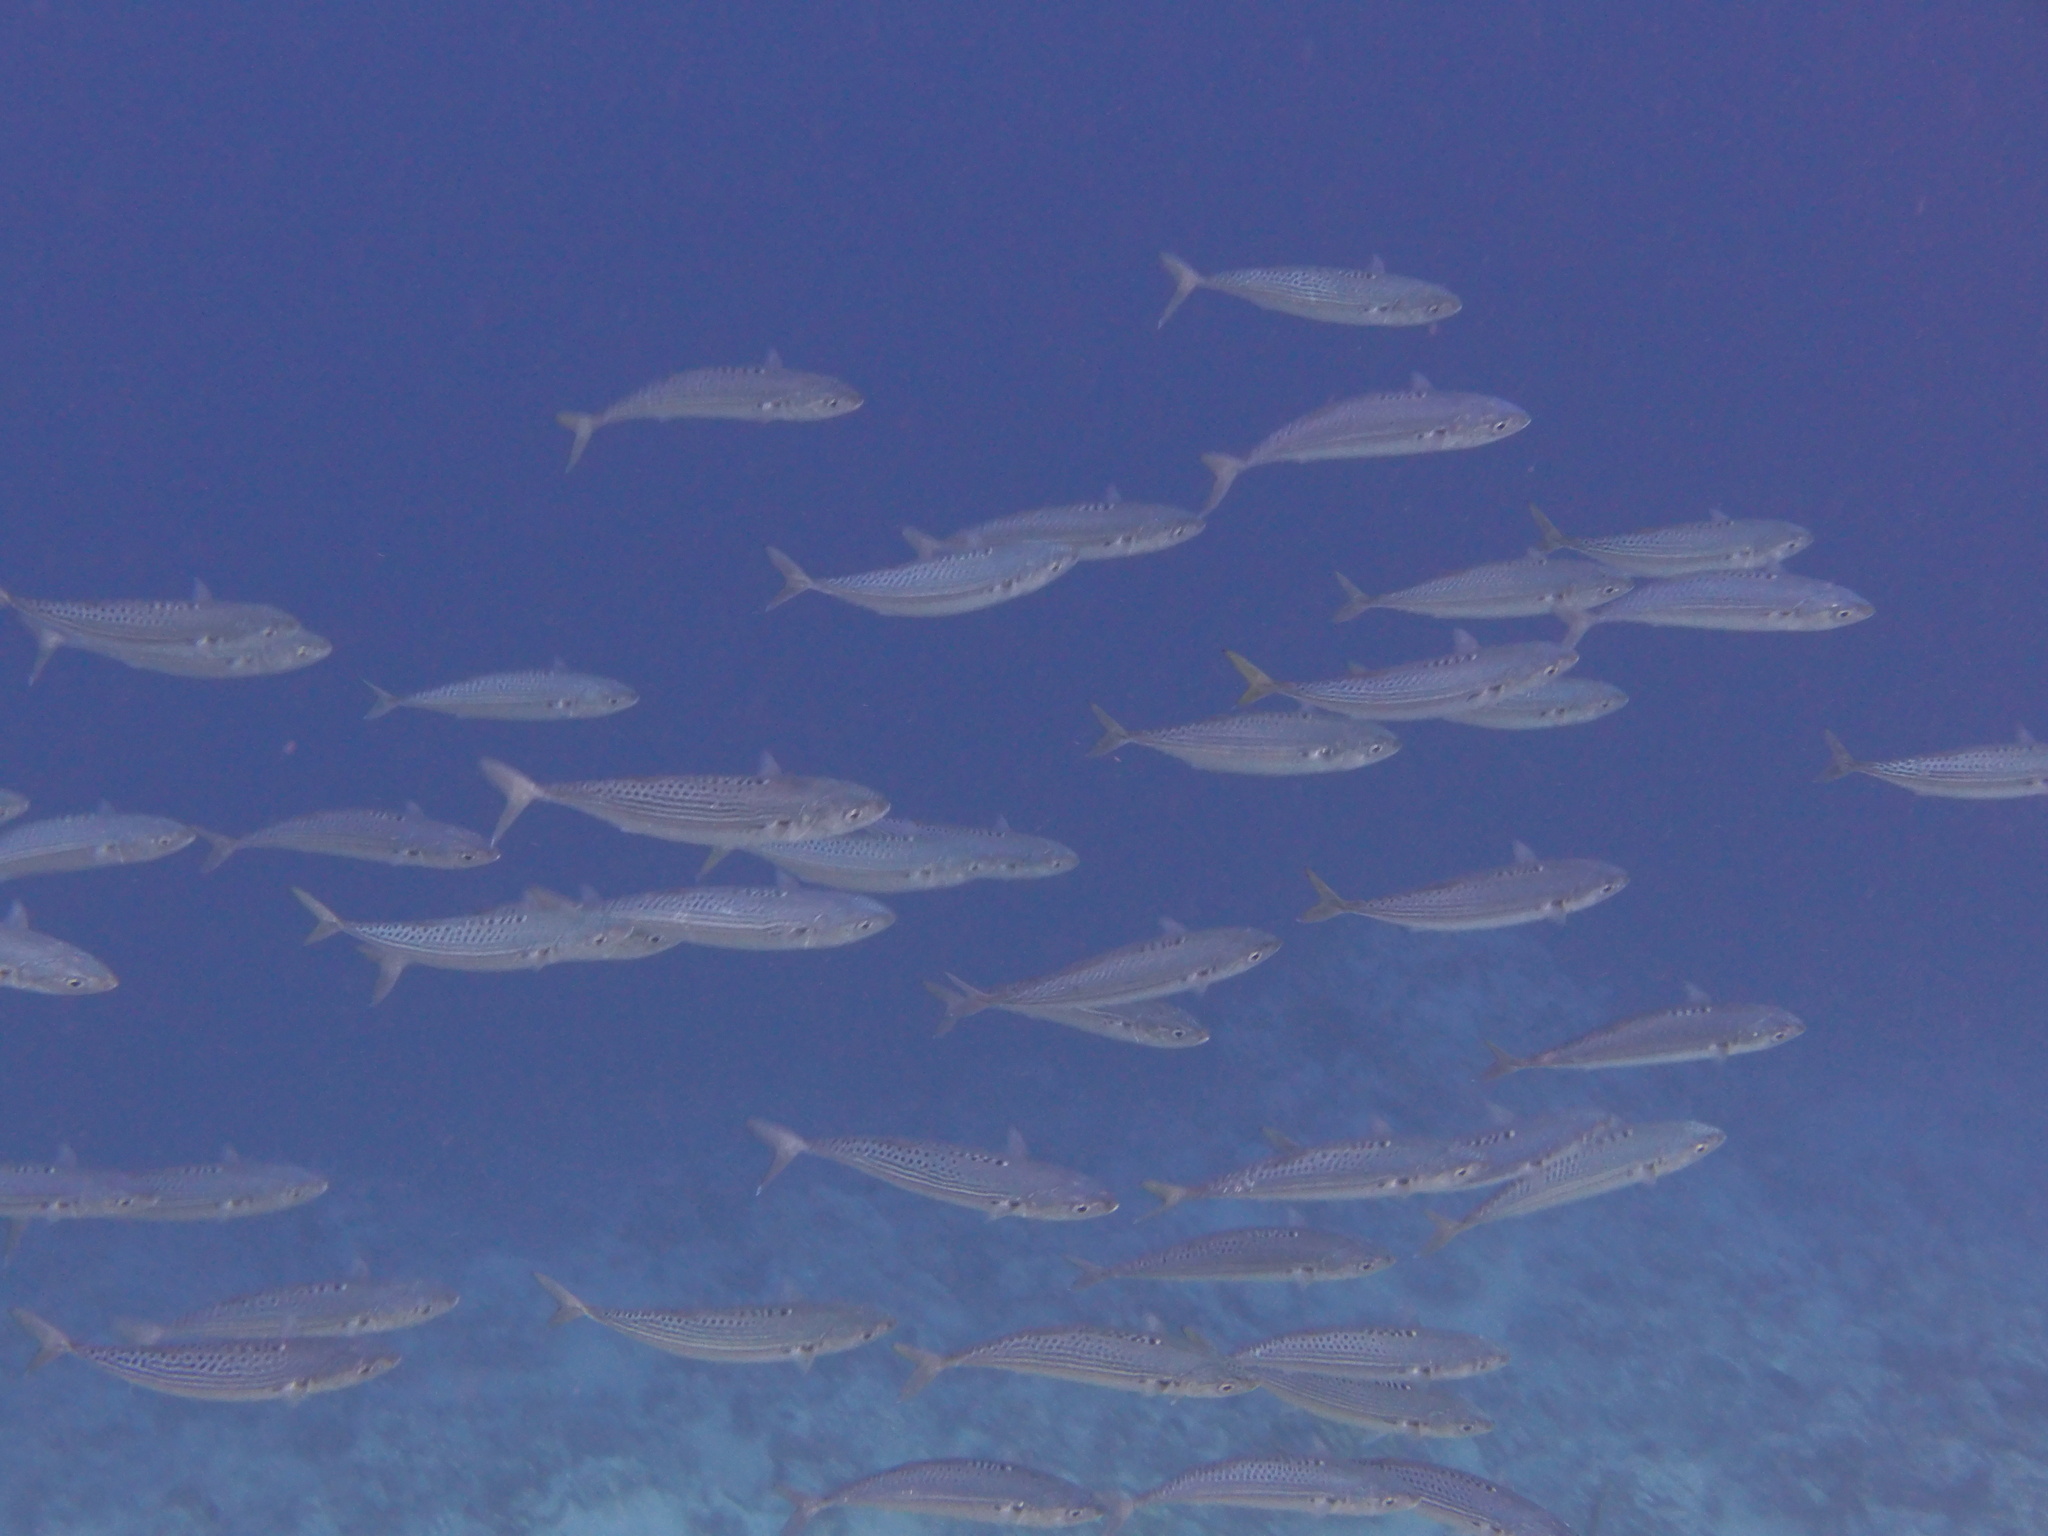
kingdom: Animalia
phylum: Chordata
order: Perciformes
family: Scombridae
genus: Rastrelliger
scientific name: Rastrelliger kanagurta
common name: Indian mackerel
